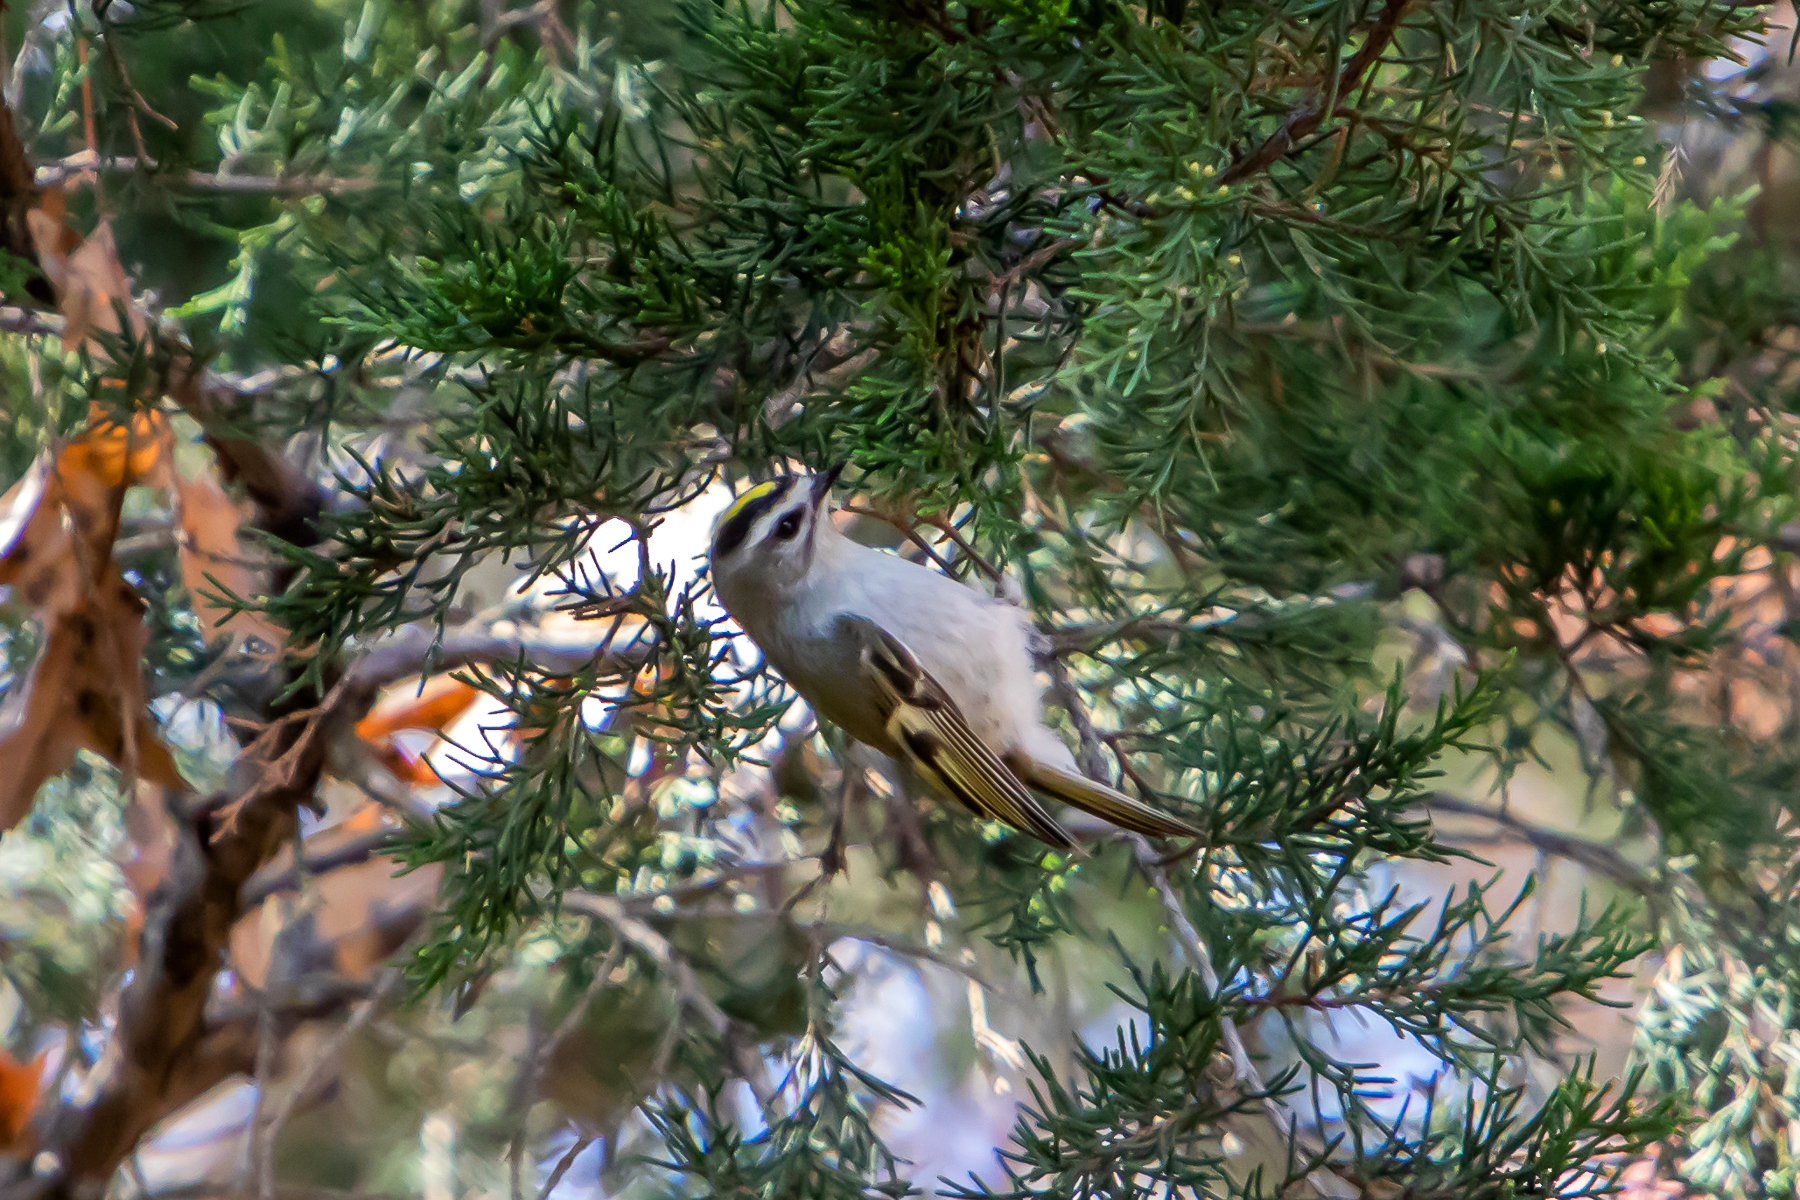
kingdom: Animalia
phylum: Chordata
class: Aves
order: Passeriformes
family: Regulidae
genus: Regulus
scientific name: Regulus satrapa
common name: Golden-crowned kinglet
